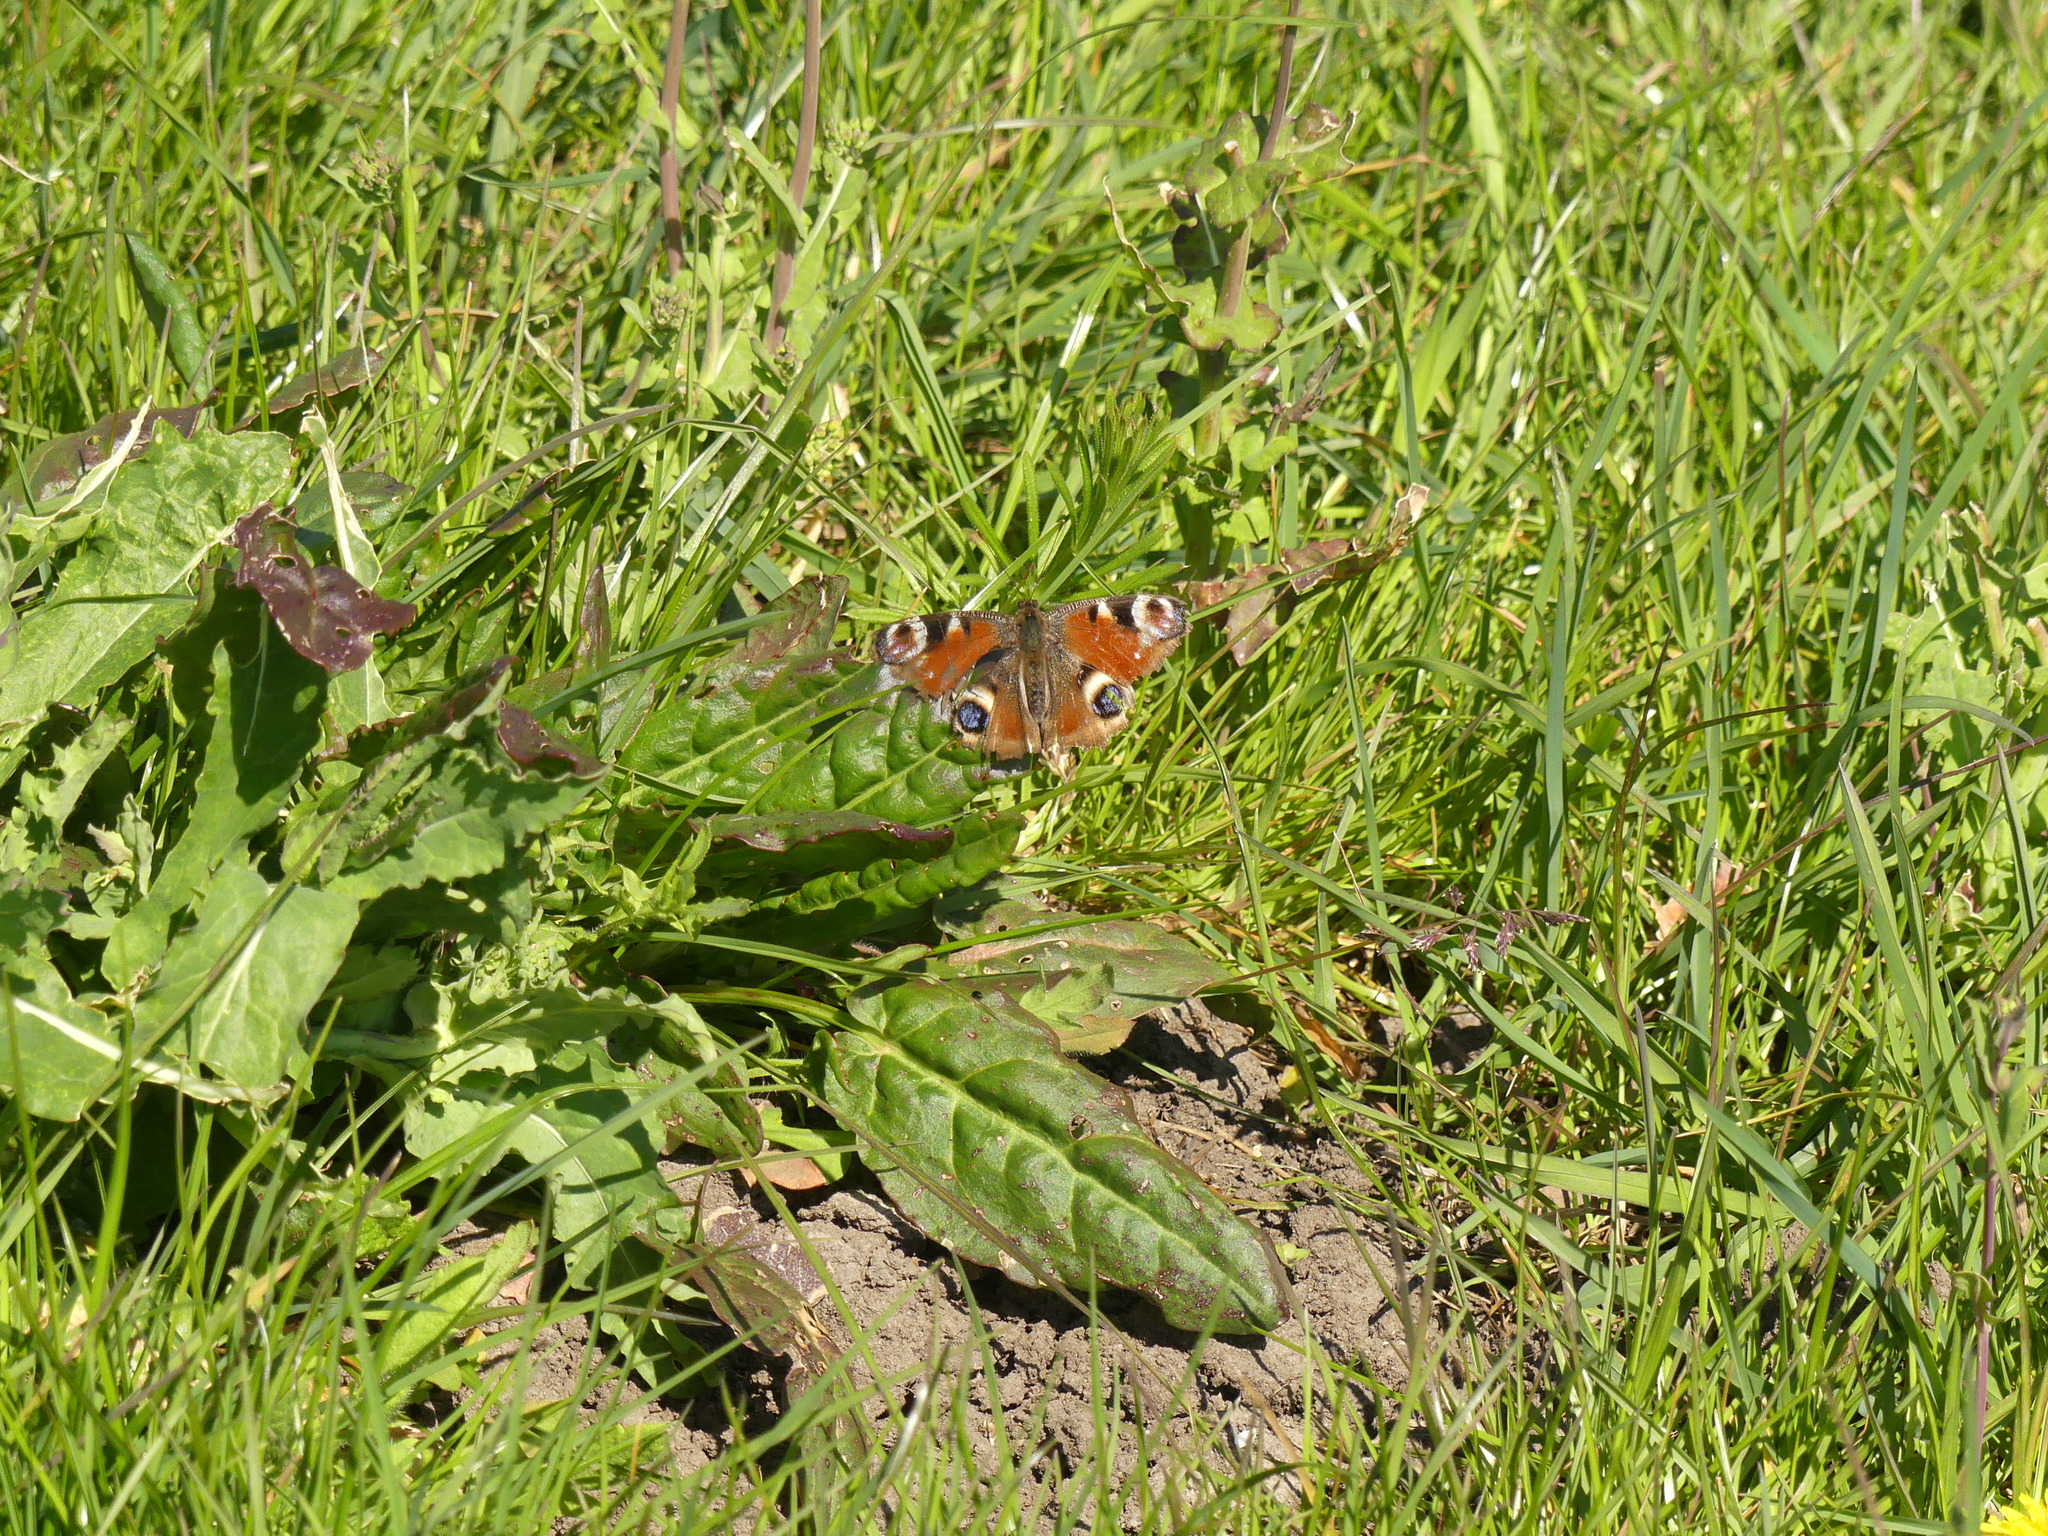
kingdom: Animalia
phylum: Arthropoda
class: Insecta
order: Lepidoptera
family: Nymphalidae
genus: Aglais
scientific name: Aglais io
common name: Peacock
